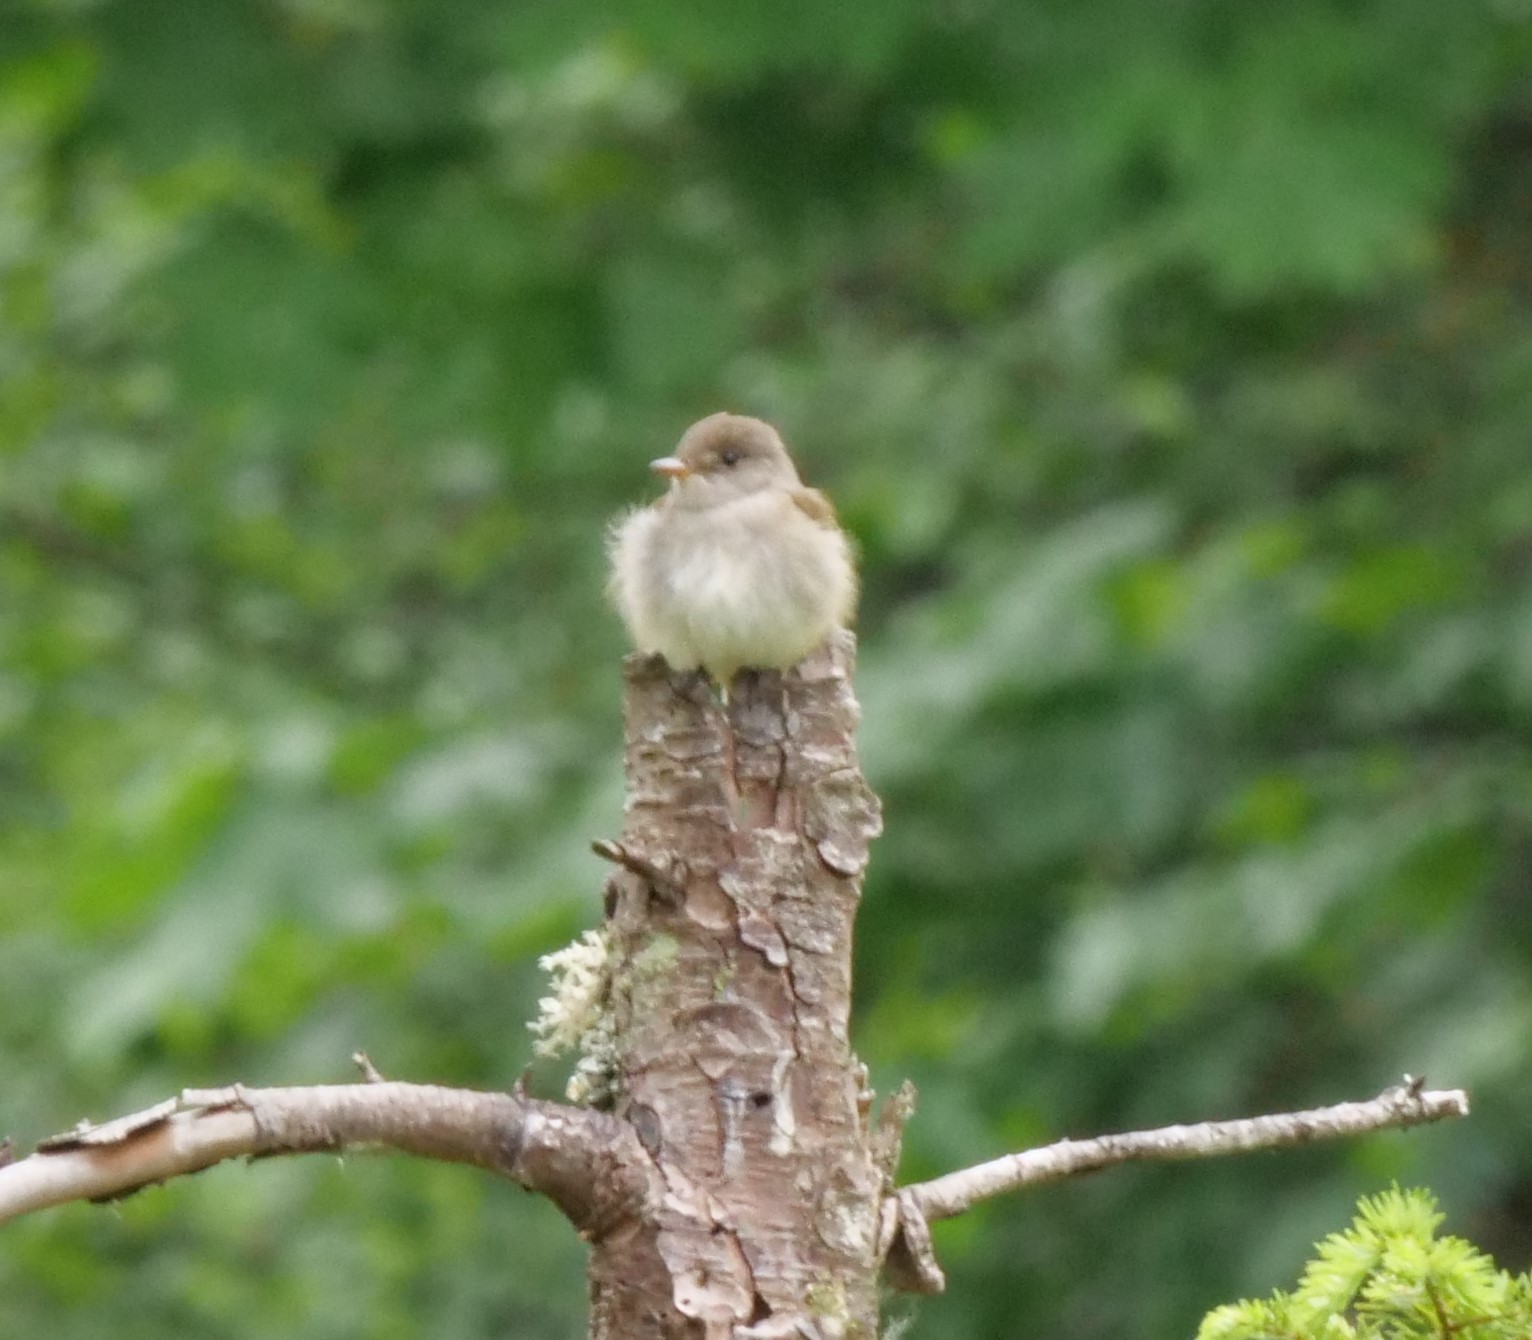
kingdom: Animalia
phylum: Chordata
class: Aves
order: Passeriformes
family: Tyrannidae
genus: Empidonax
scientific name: Empidonax traillii
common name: Willow flycatcher
